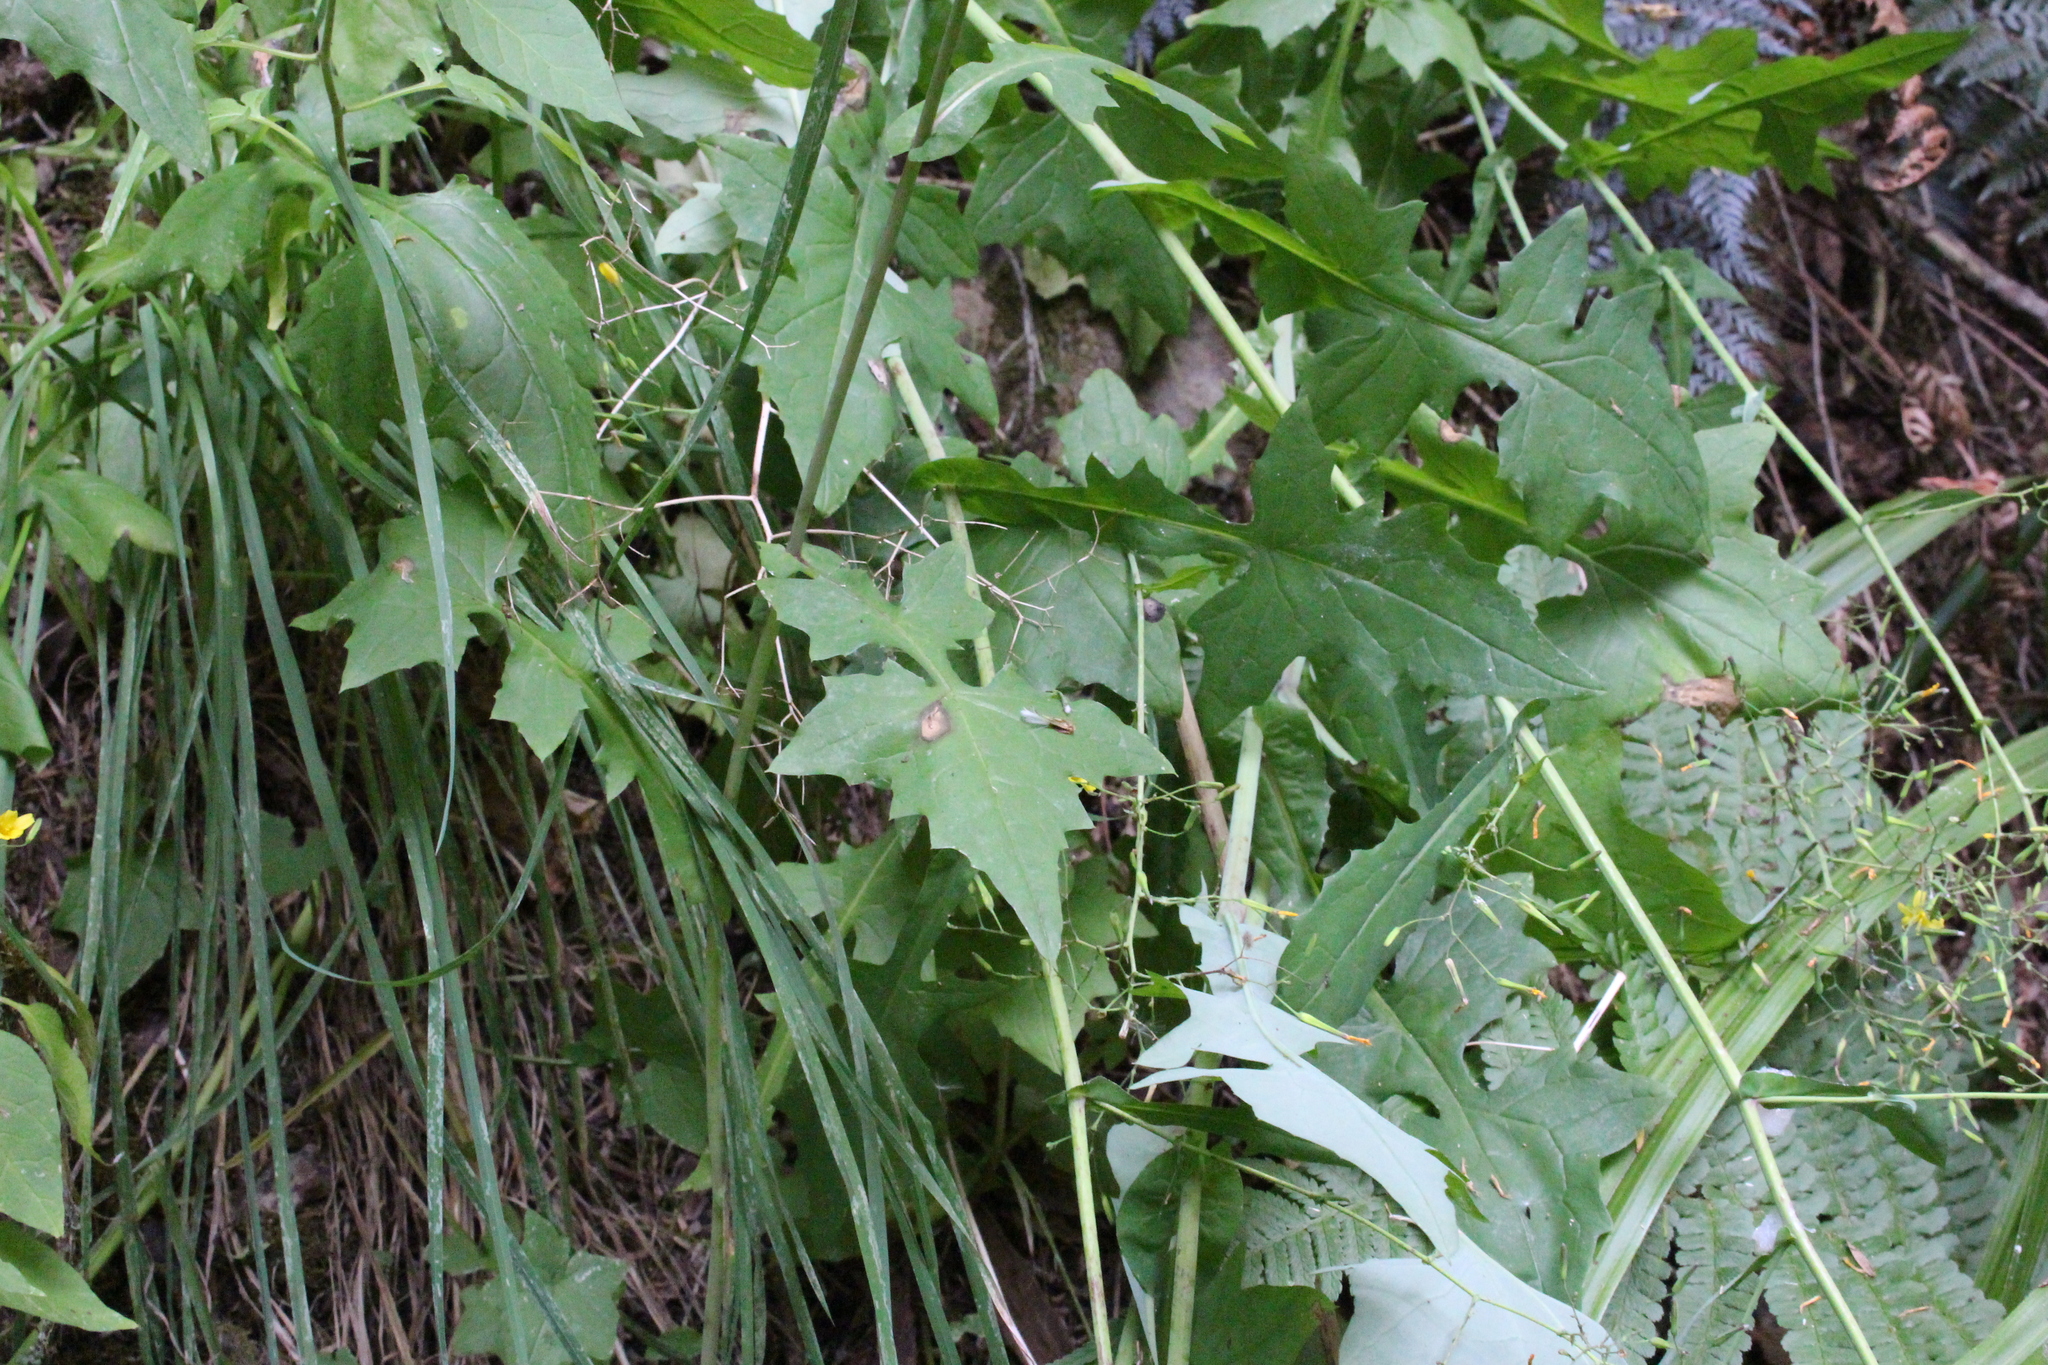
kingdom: Plantae
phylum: Tracheophyta
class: Magnoliopsida
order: Asterales
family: Asteraceae
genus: Mycelis
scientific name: Mycelis muralis
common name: Wall lettuce
